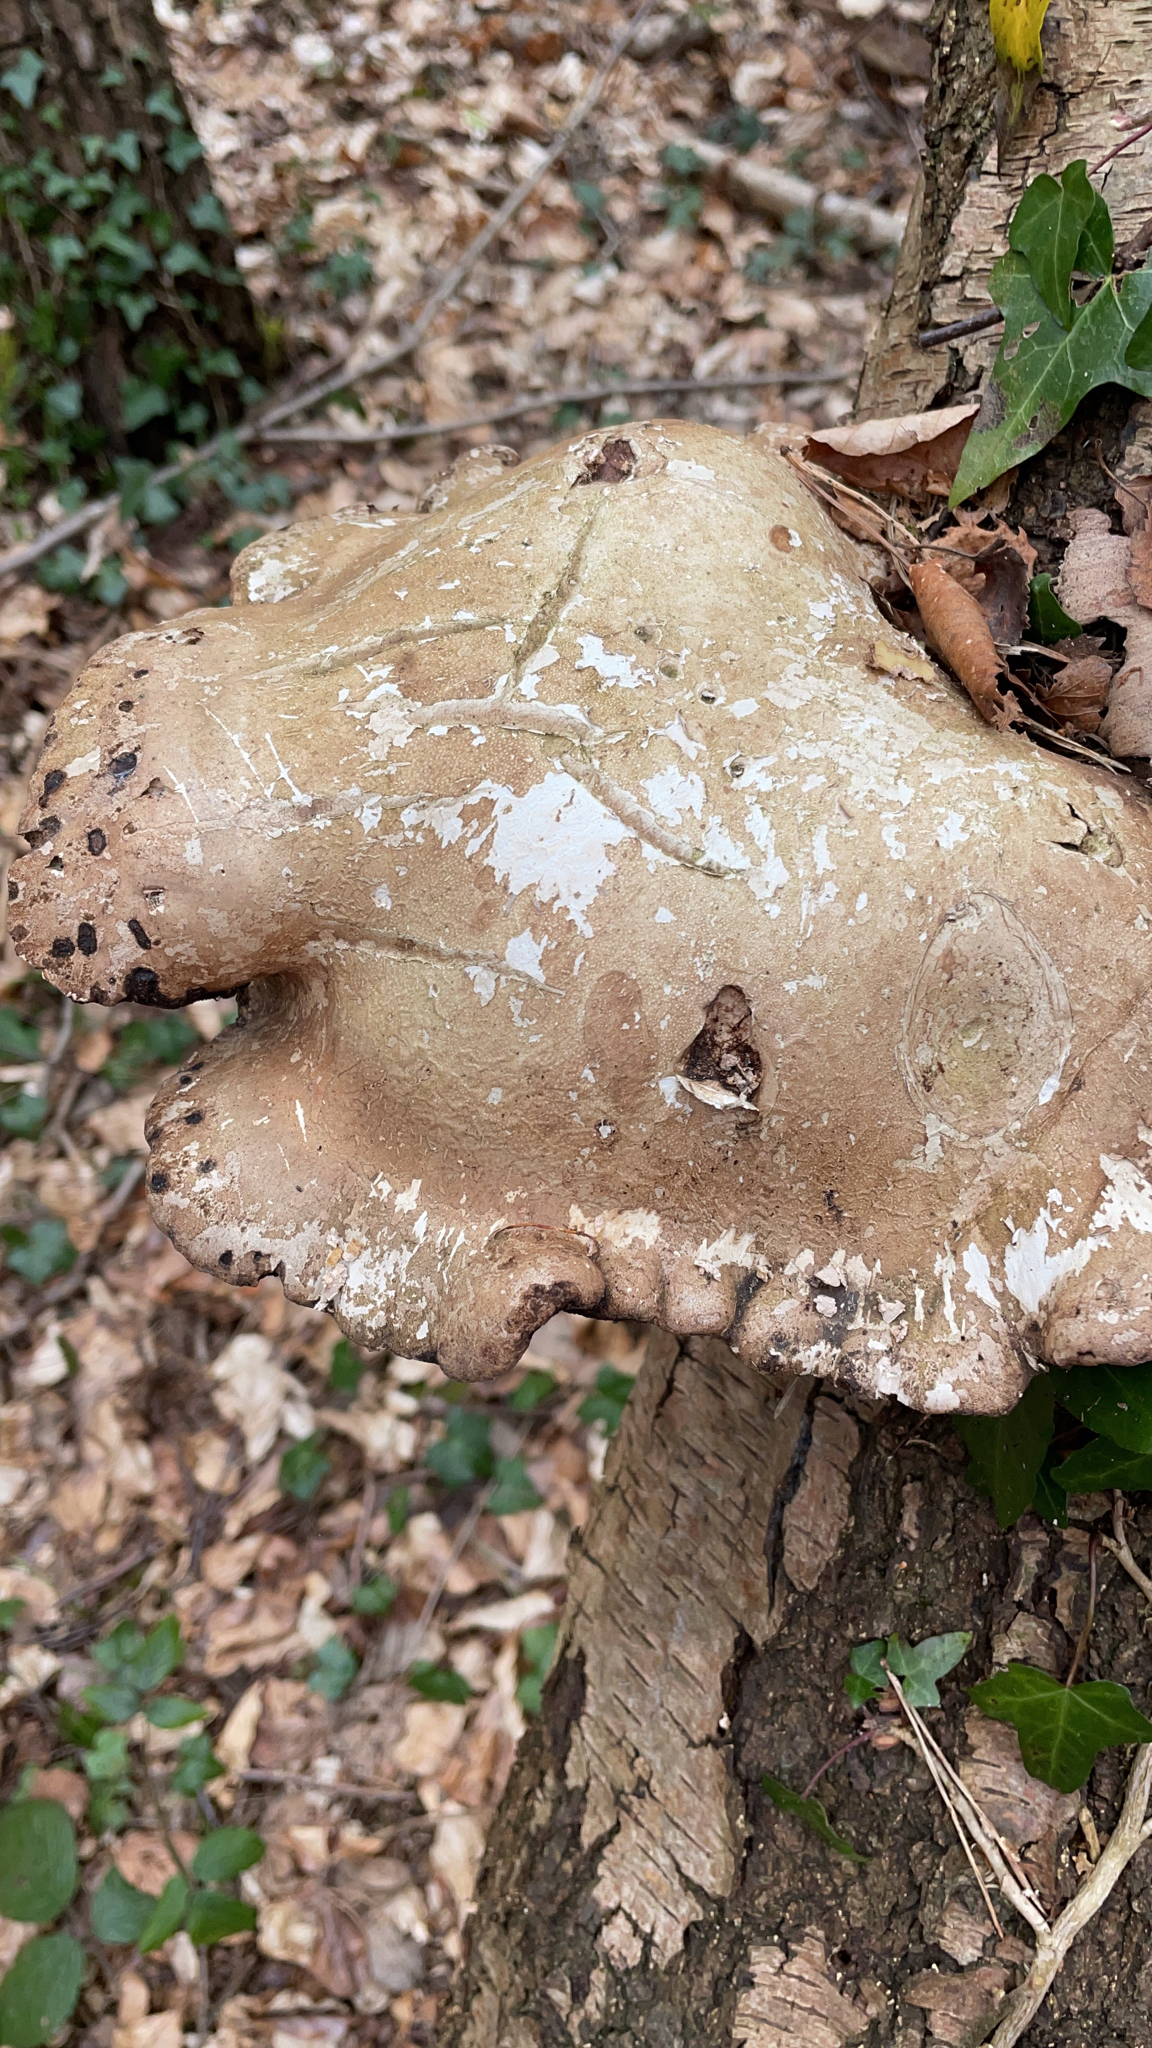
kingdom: Fungi
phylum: Basidiomycota
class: Agaricomycetes
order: Polyporales
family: Fomitopsidaceae
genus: Fomitopsis
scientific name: Fomitopsis betulina
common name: Birch polypore
